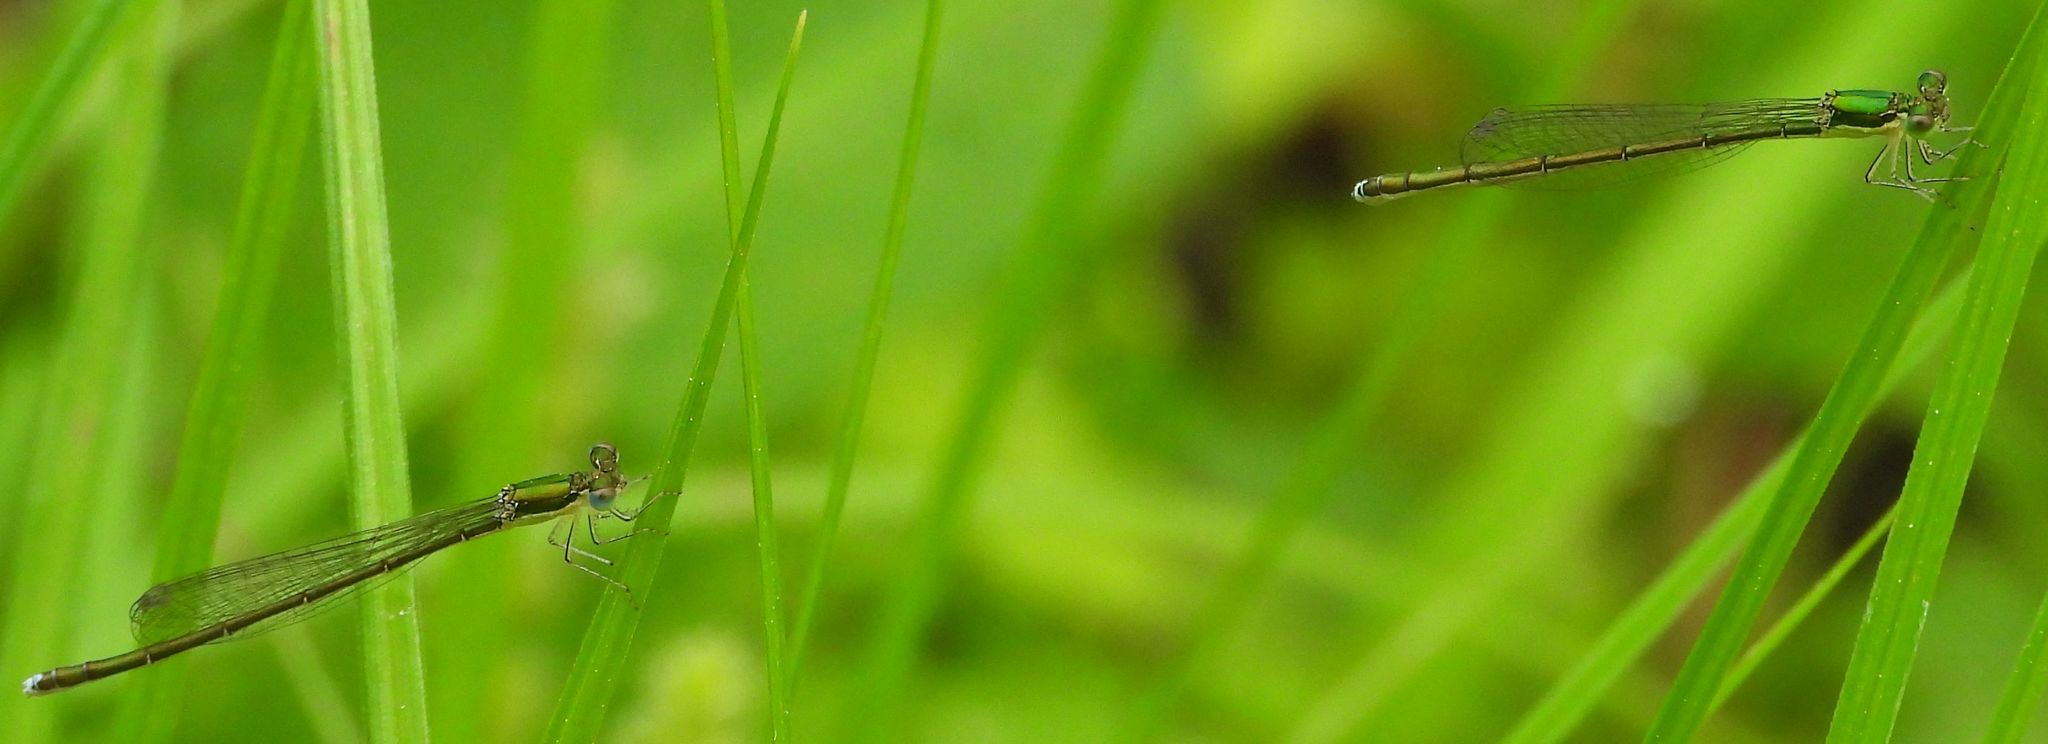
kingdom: Animalia
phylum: Arthropoda
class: Insecta
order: Odonata
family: Coenagrionidae
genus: Nehalennia
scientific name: Nehalennia irene
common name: Sedge sprite
